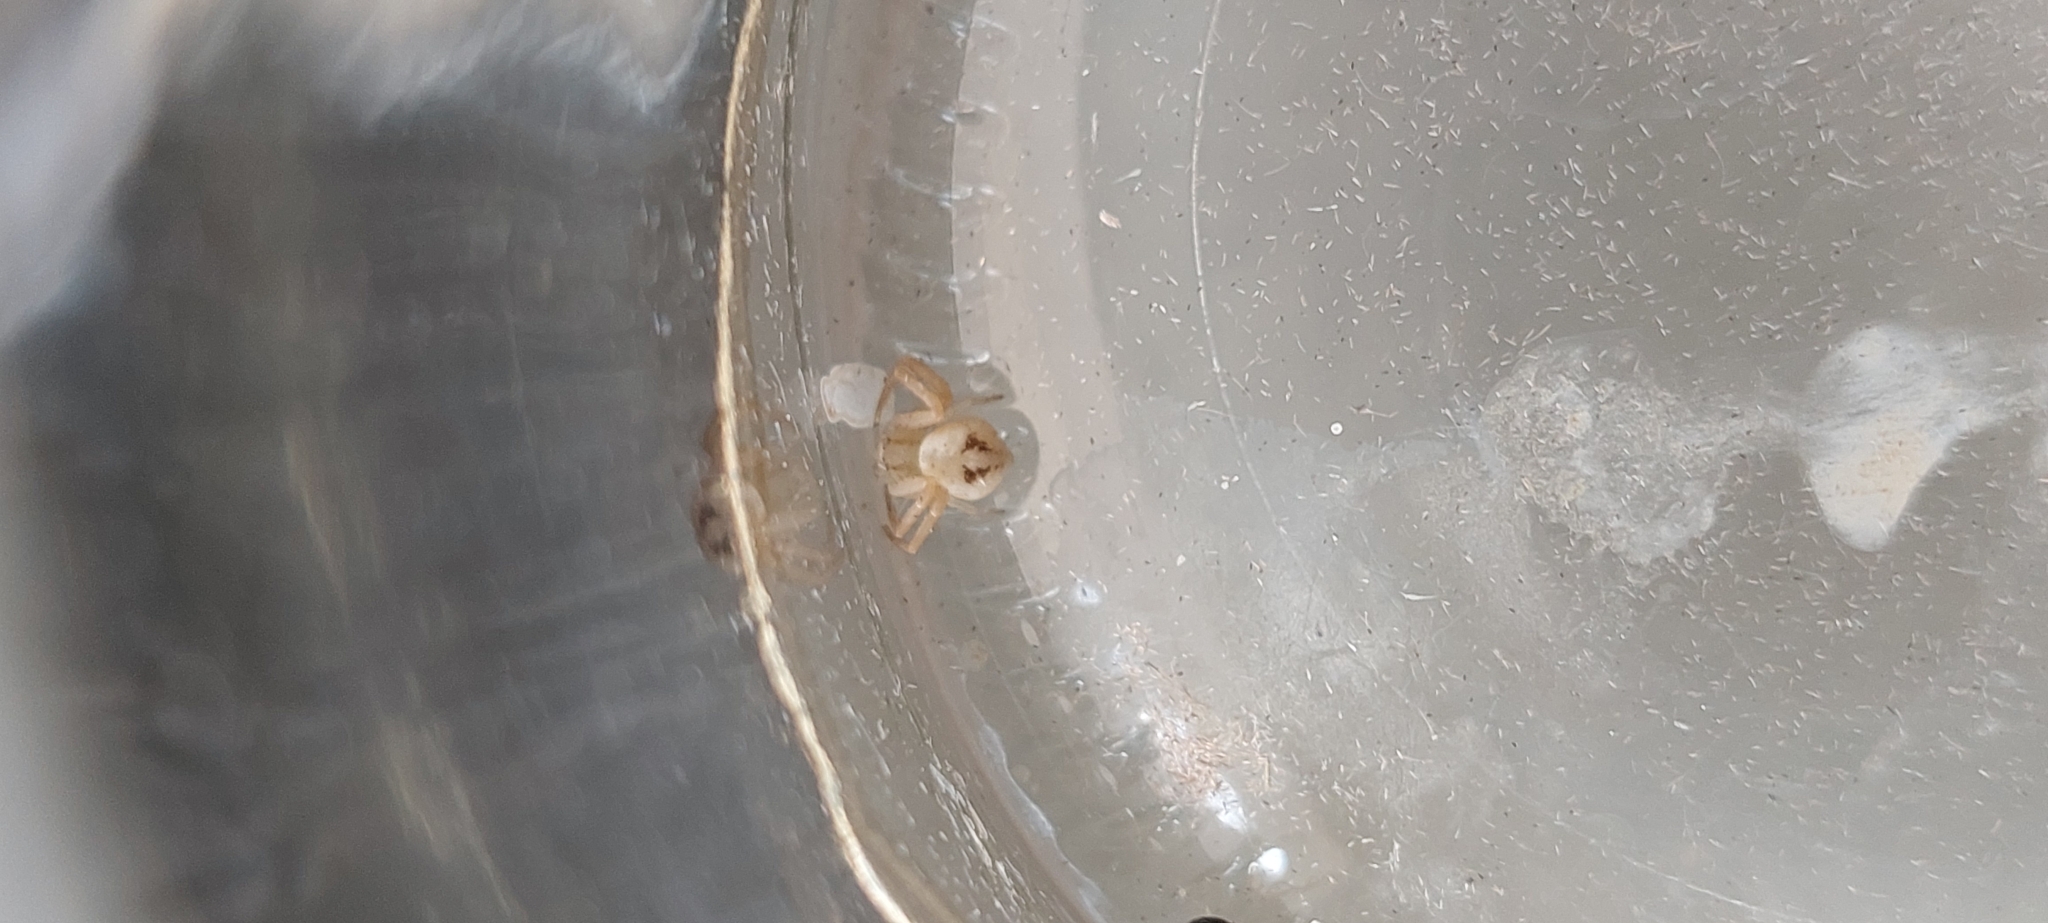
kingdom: Animalia
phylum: Arthropoda
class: Arachnida
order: Araneae
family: Thomisidae
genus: Misumenops
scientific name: Misumenops
